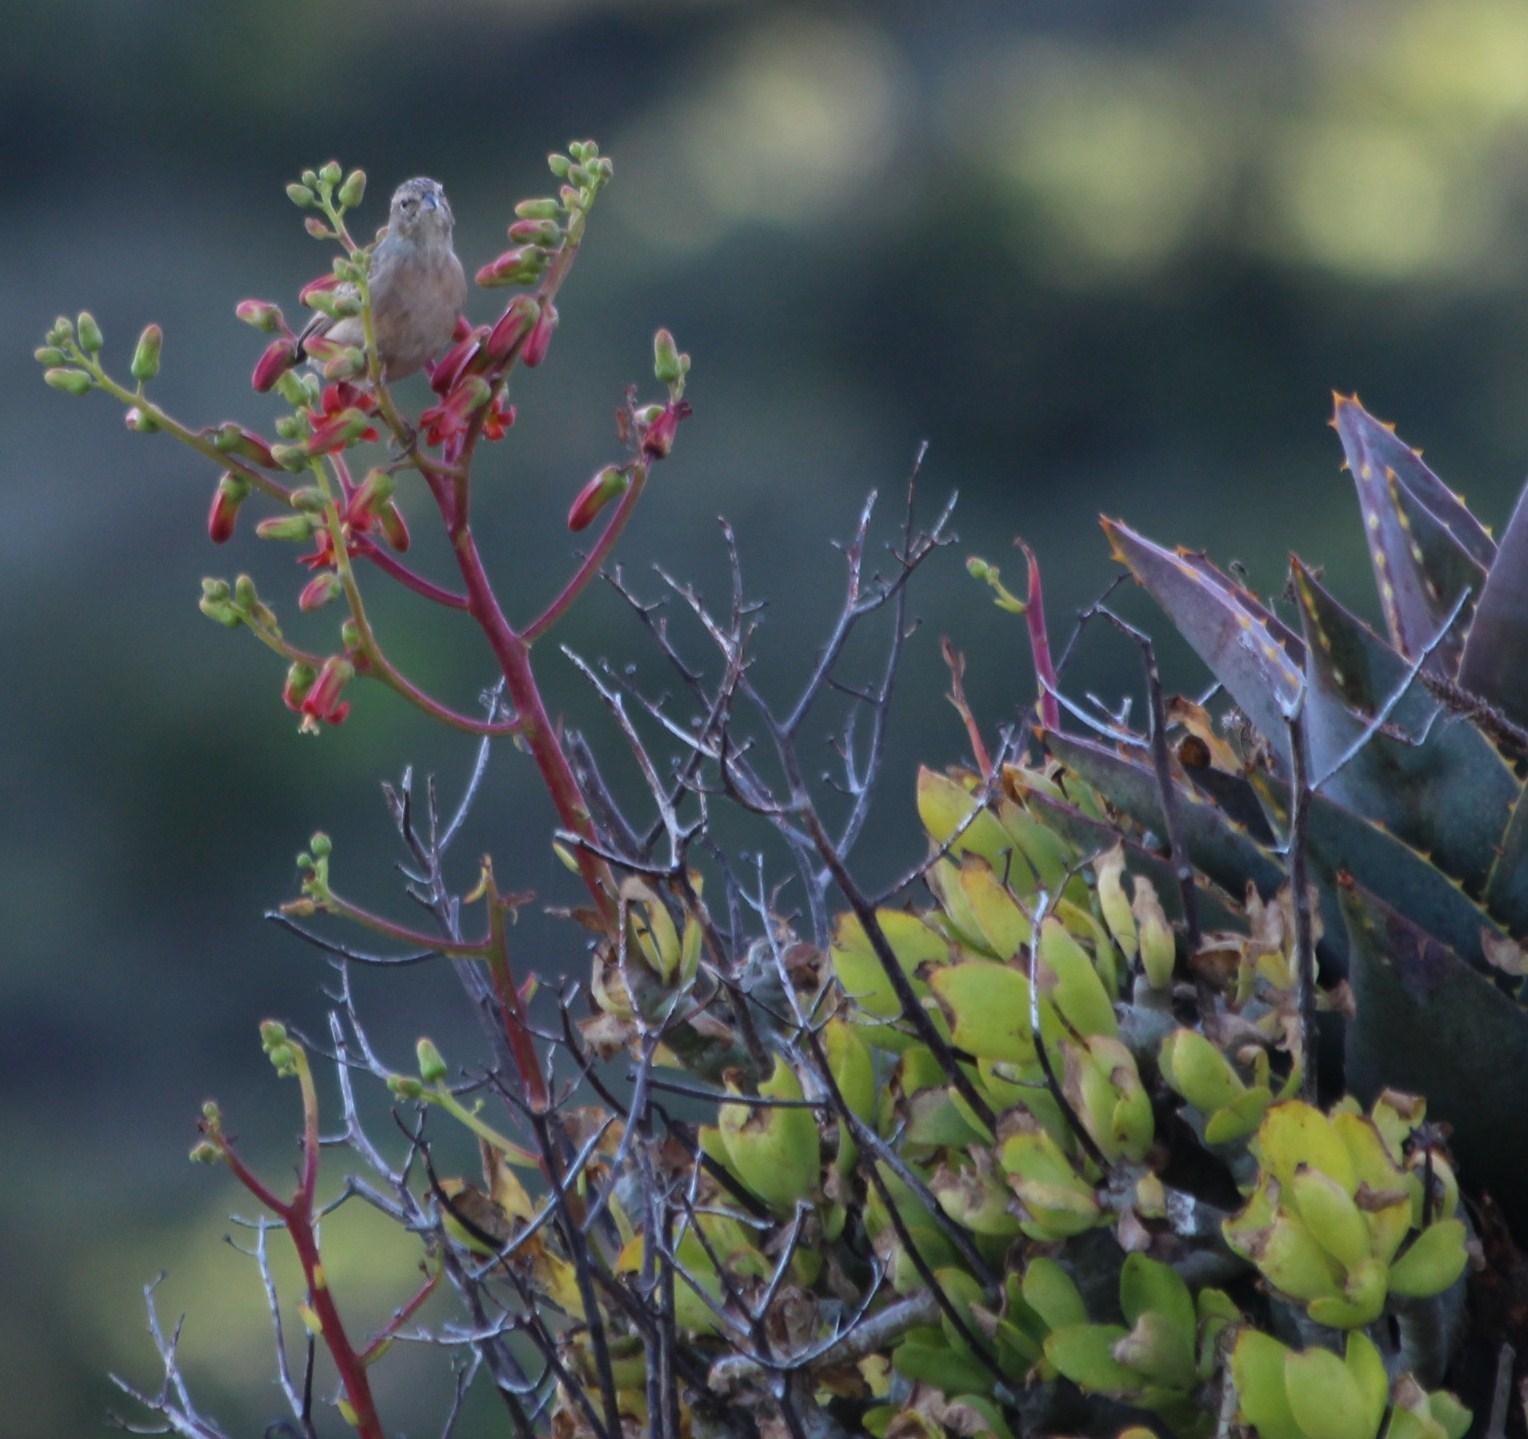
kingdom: Plantae
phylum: Tracheophyta
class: Magnoliopsida
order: Saxifragales
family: Crassulaceae
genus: Tylecodon
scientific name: Tylecodon paniculatus
